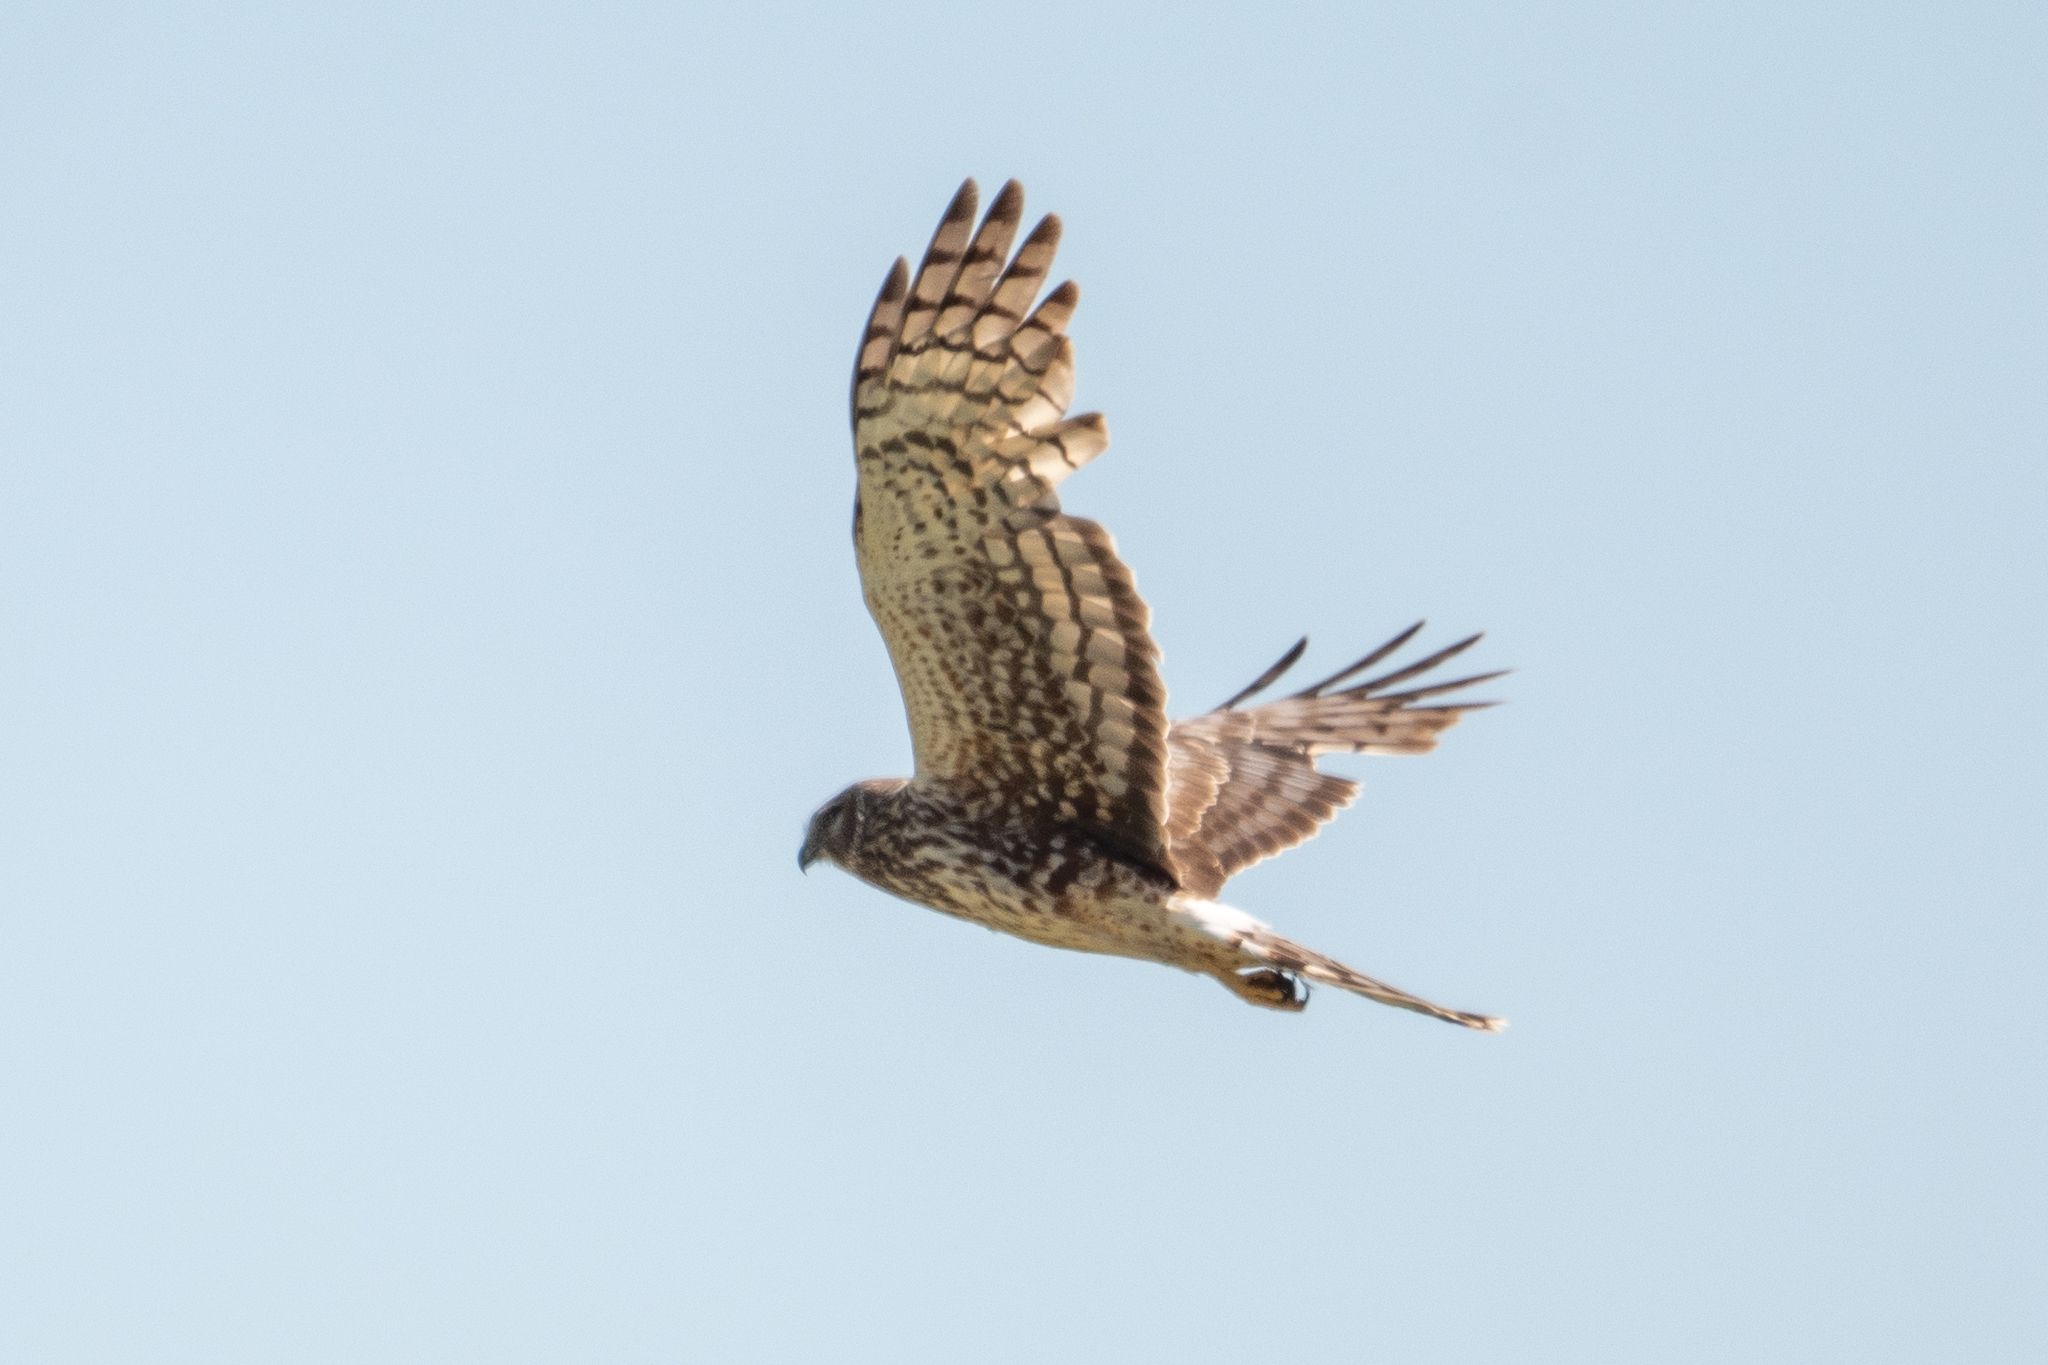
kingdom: Animalia
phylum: Chordata
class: Aves
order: Accipitriformes
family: Accipitridae
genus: Circus
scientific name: Circus cyaneus
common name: Hen harrier
